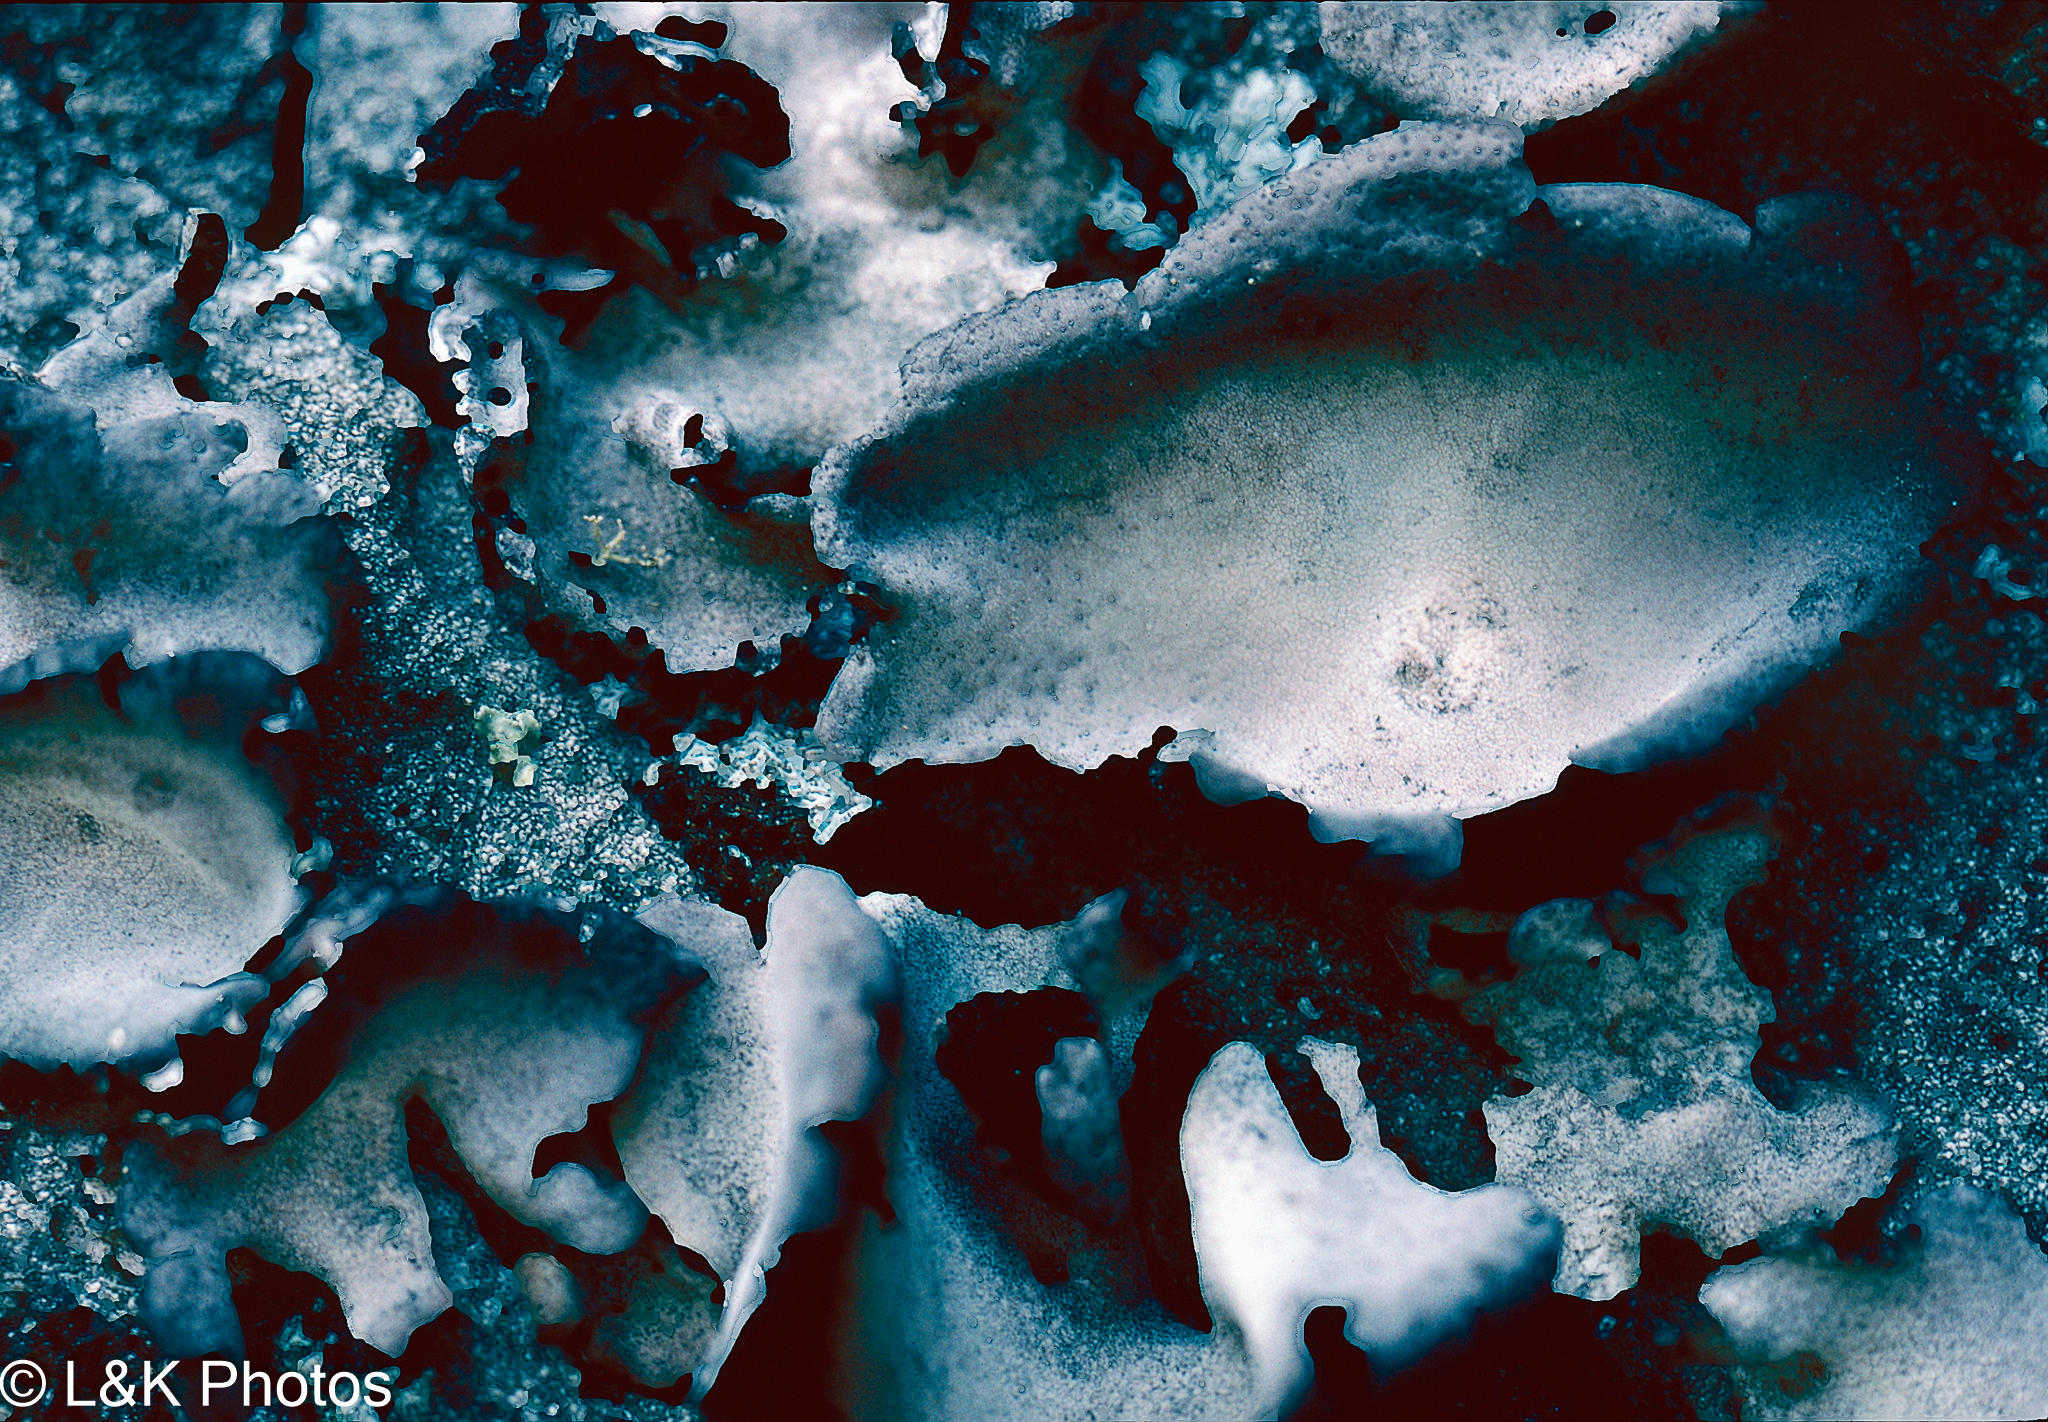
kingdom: Fungi
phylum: Ascomycota
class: Lecanoromycetes
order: Umbilicariales
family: Umbilicariaceae
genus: Umbilicaria
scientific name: Umbilicaria americana
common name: Frosted rock tripe
